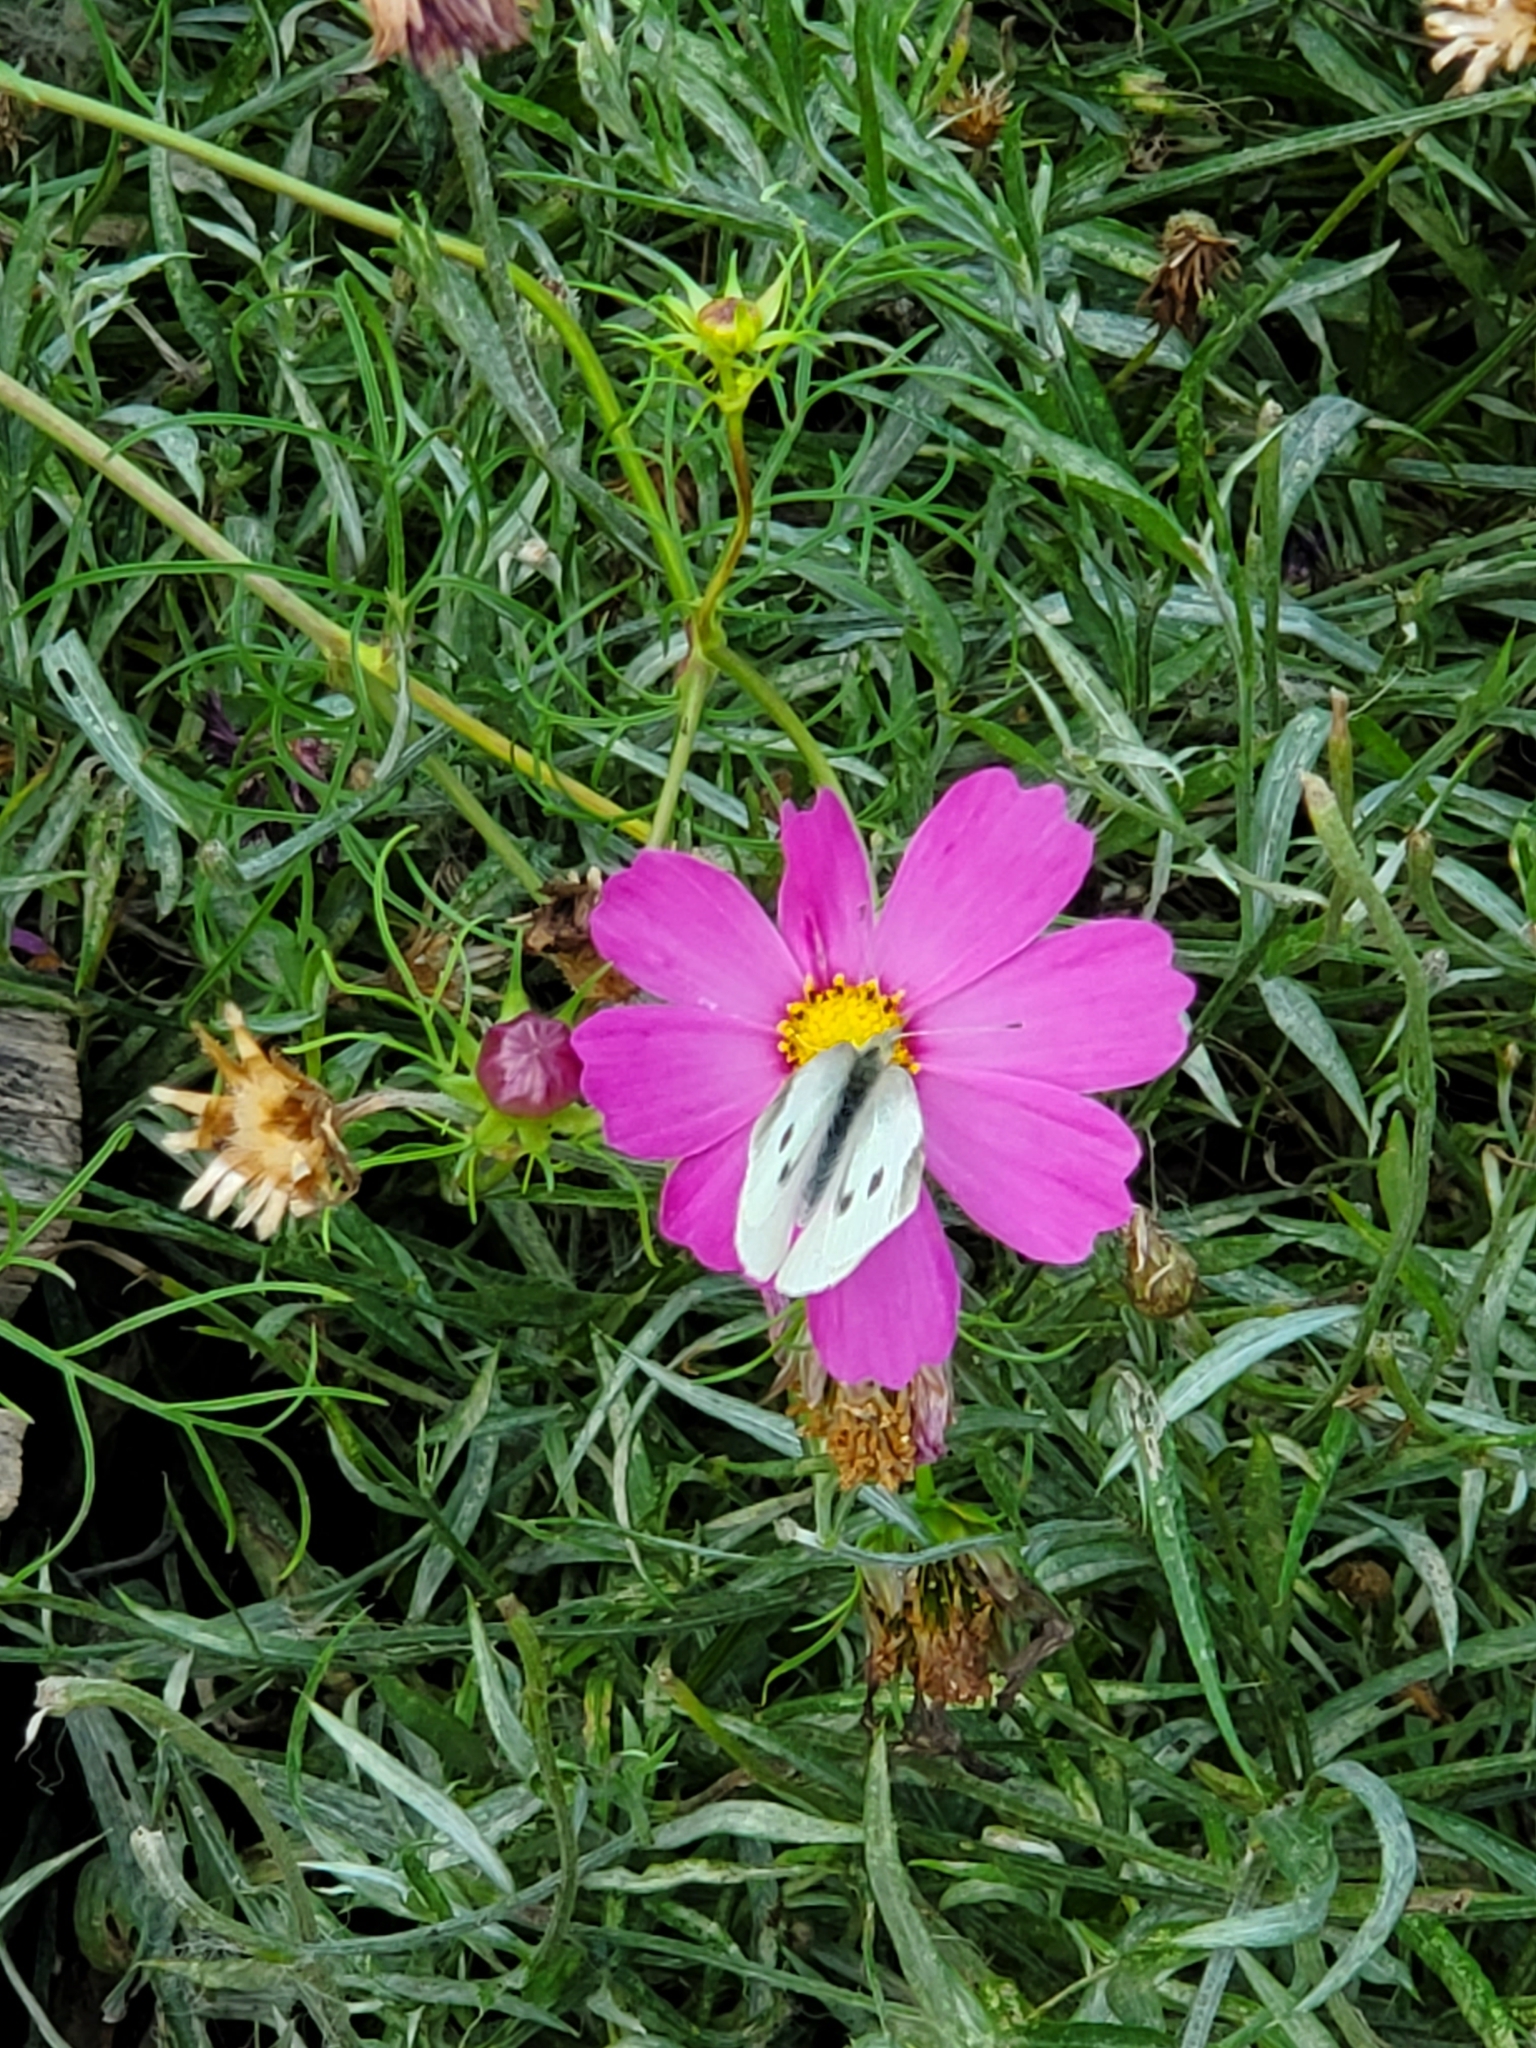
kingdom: Animalia
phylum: Arthropoda
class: Insecta
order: Lepidoptera
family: Pieridae
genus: Pieris
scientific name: Pieris rapae
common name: Small white
